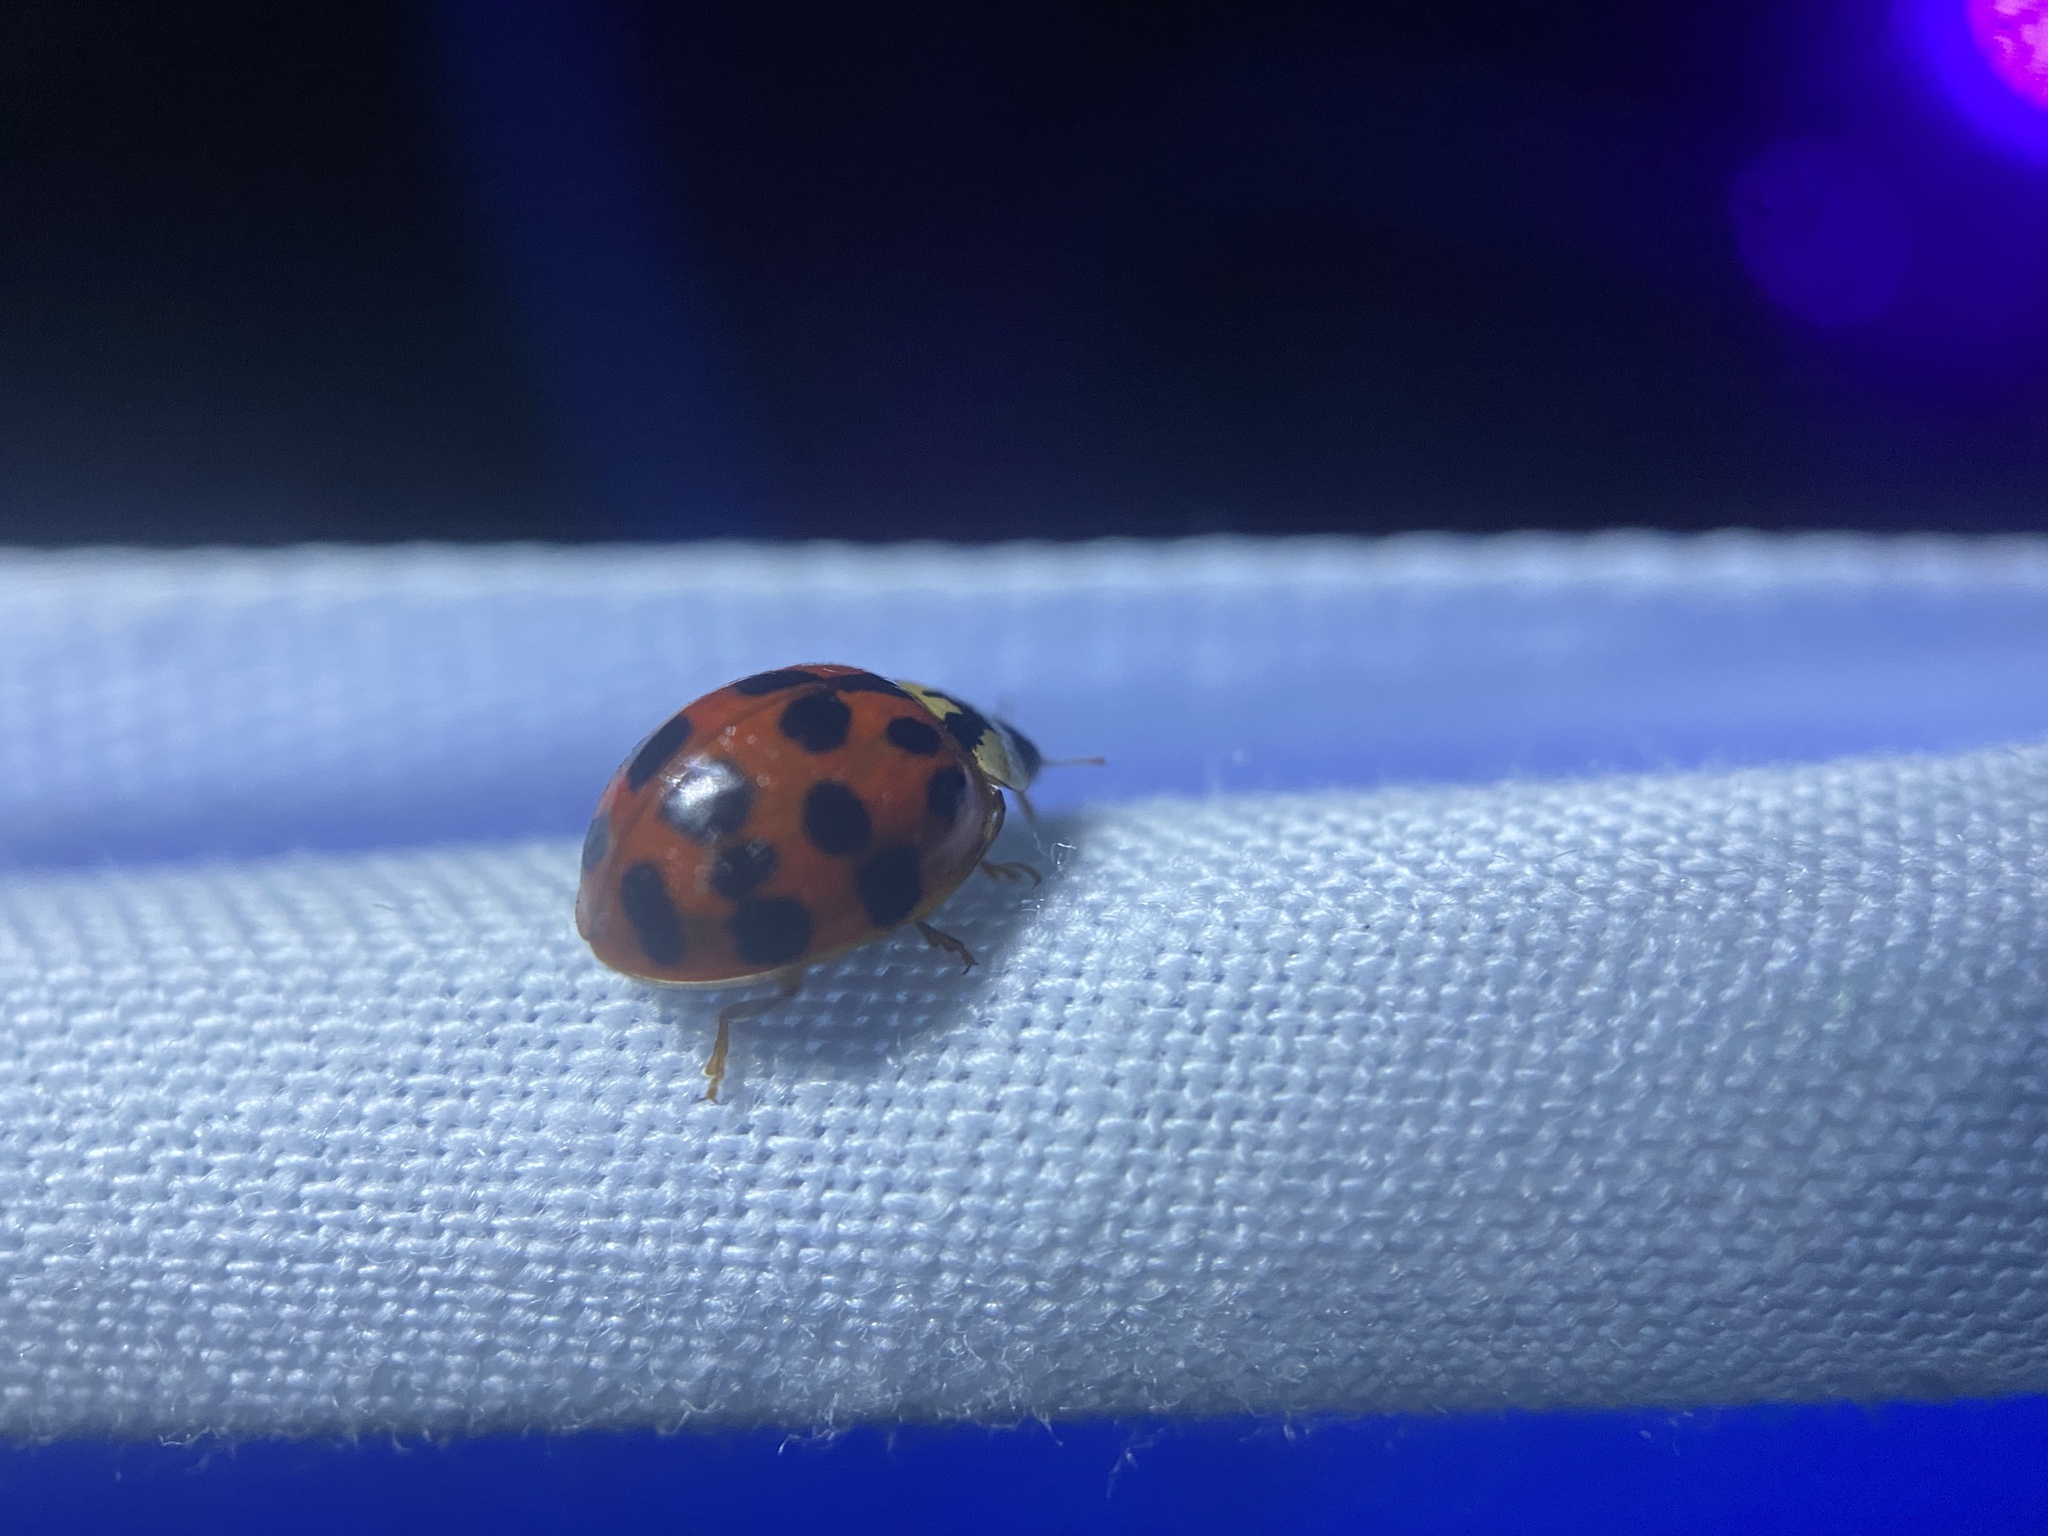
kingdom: Animalia
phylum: Arthropoda
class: Insecta
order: Coleoptera
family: Coccinellidae
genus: Harmonia
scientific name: Harmonia axyridis
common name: Harlequin ladybird
